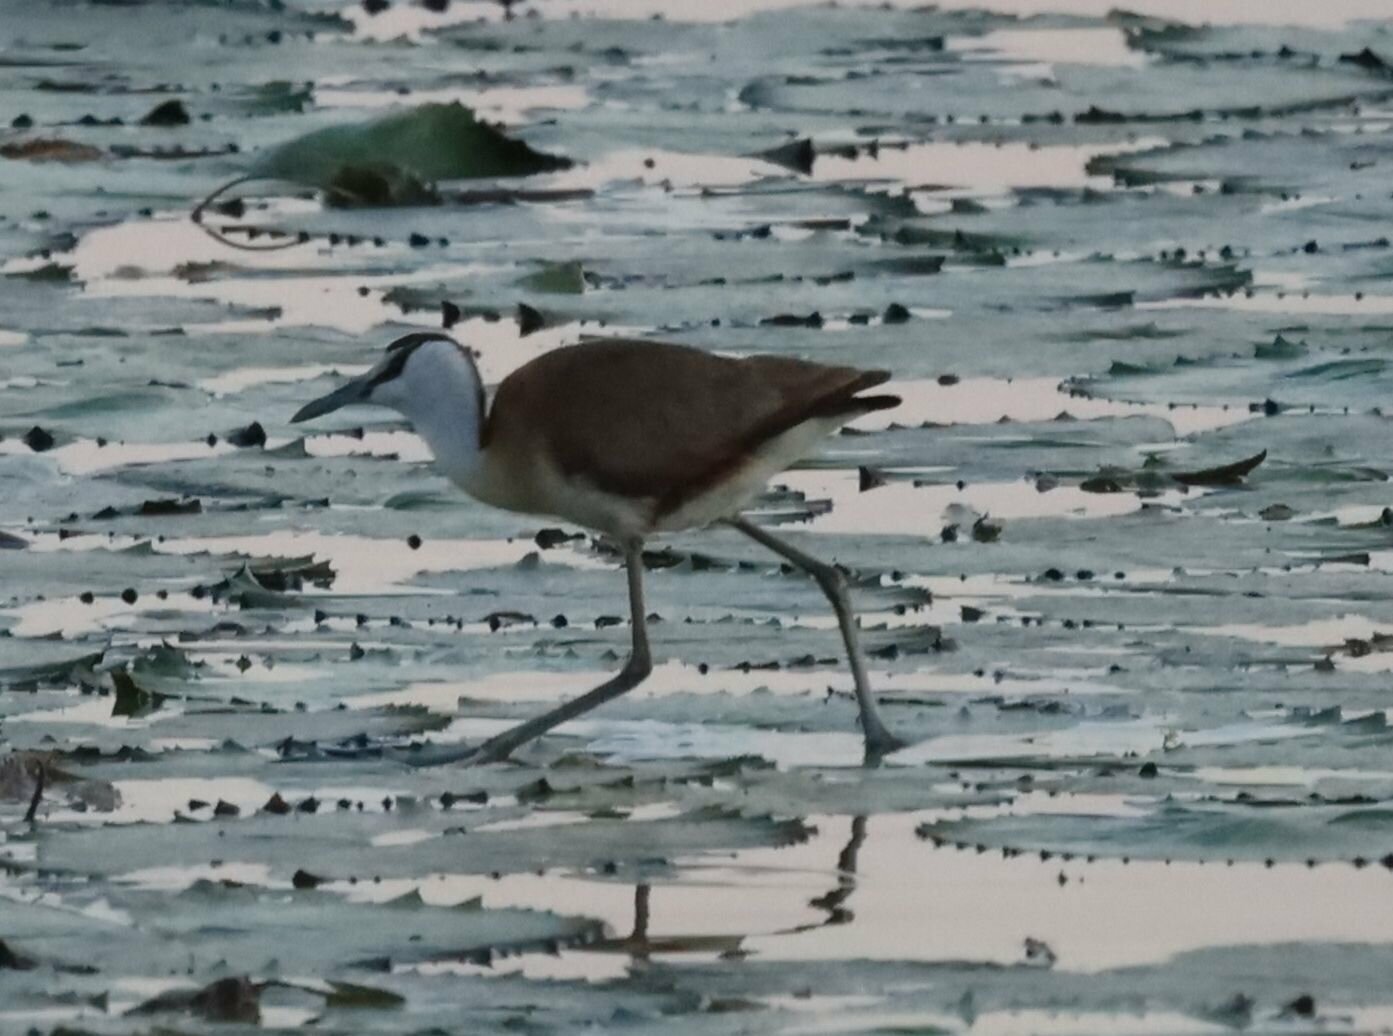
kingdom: Animalia
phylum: Chordata
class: Aves
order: Charadriiformes
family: Jacanidae
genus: Actophilornis
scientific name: Actophilornis africanus
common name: African jacana
